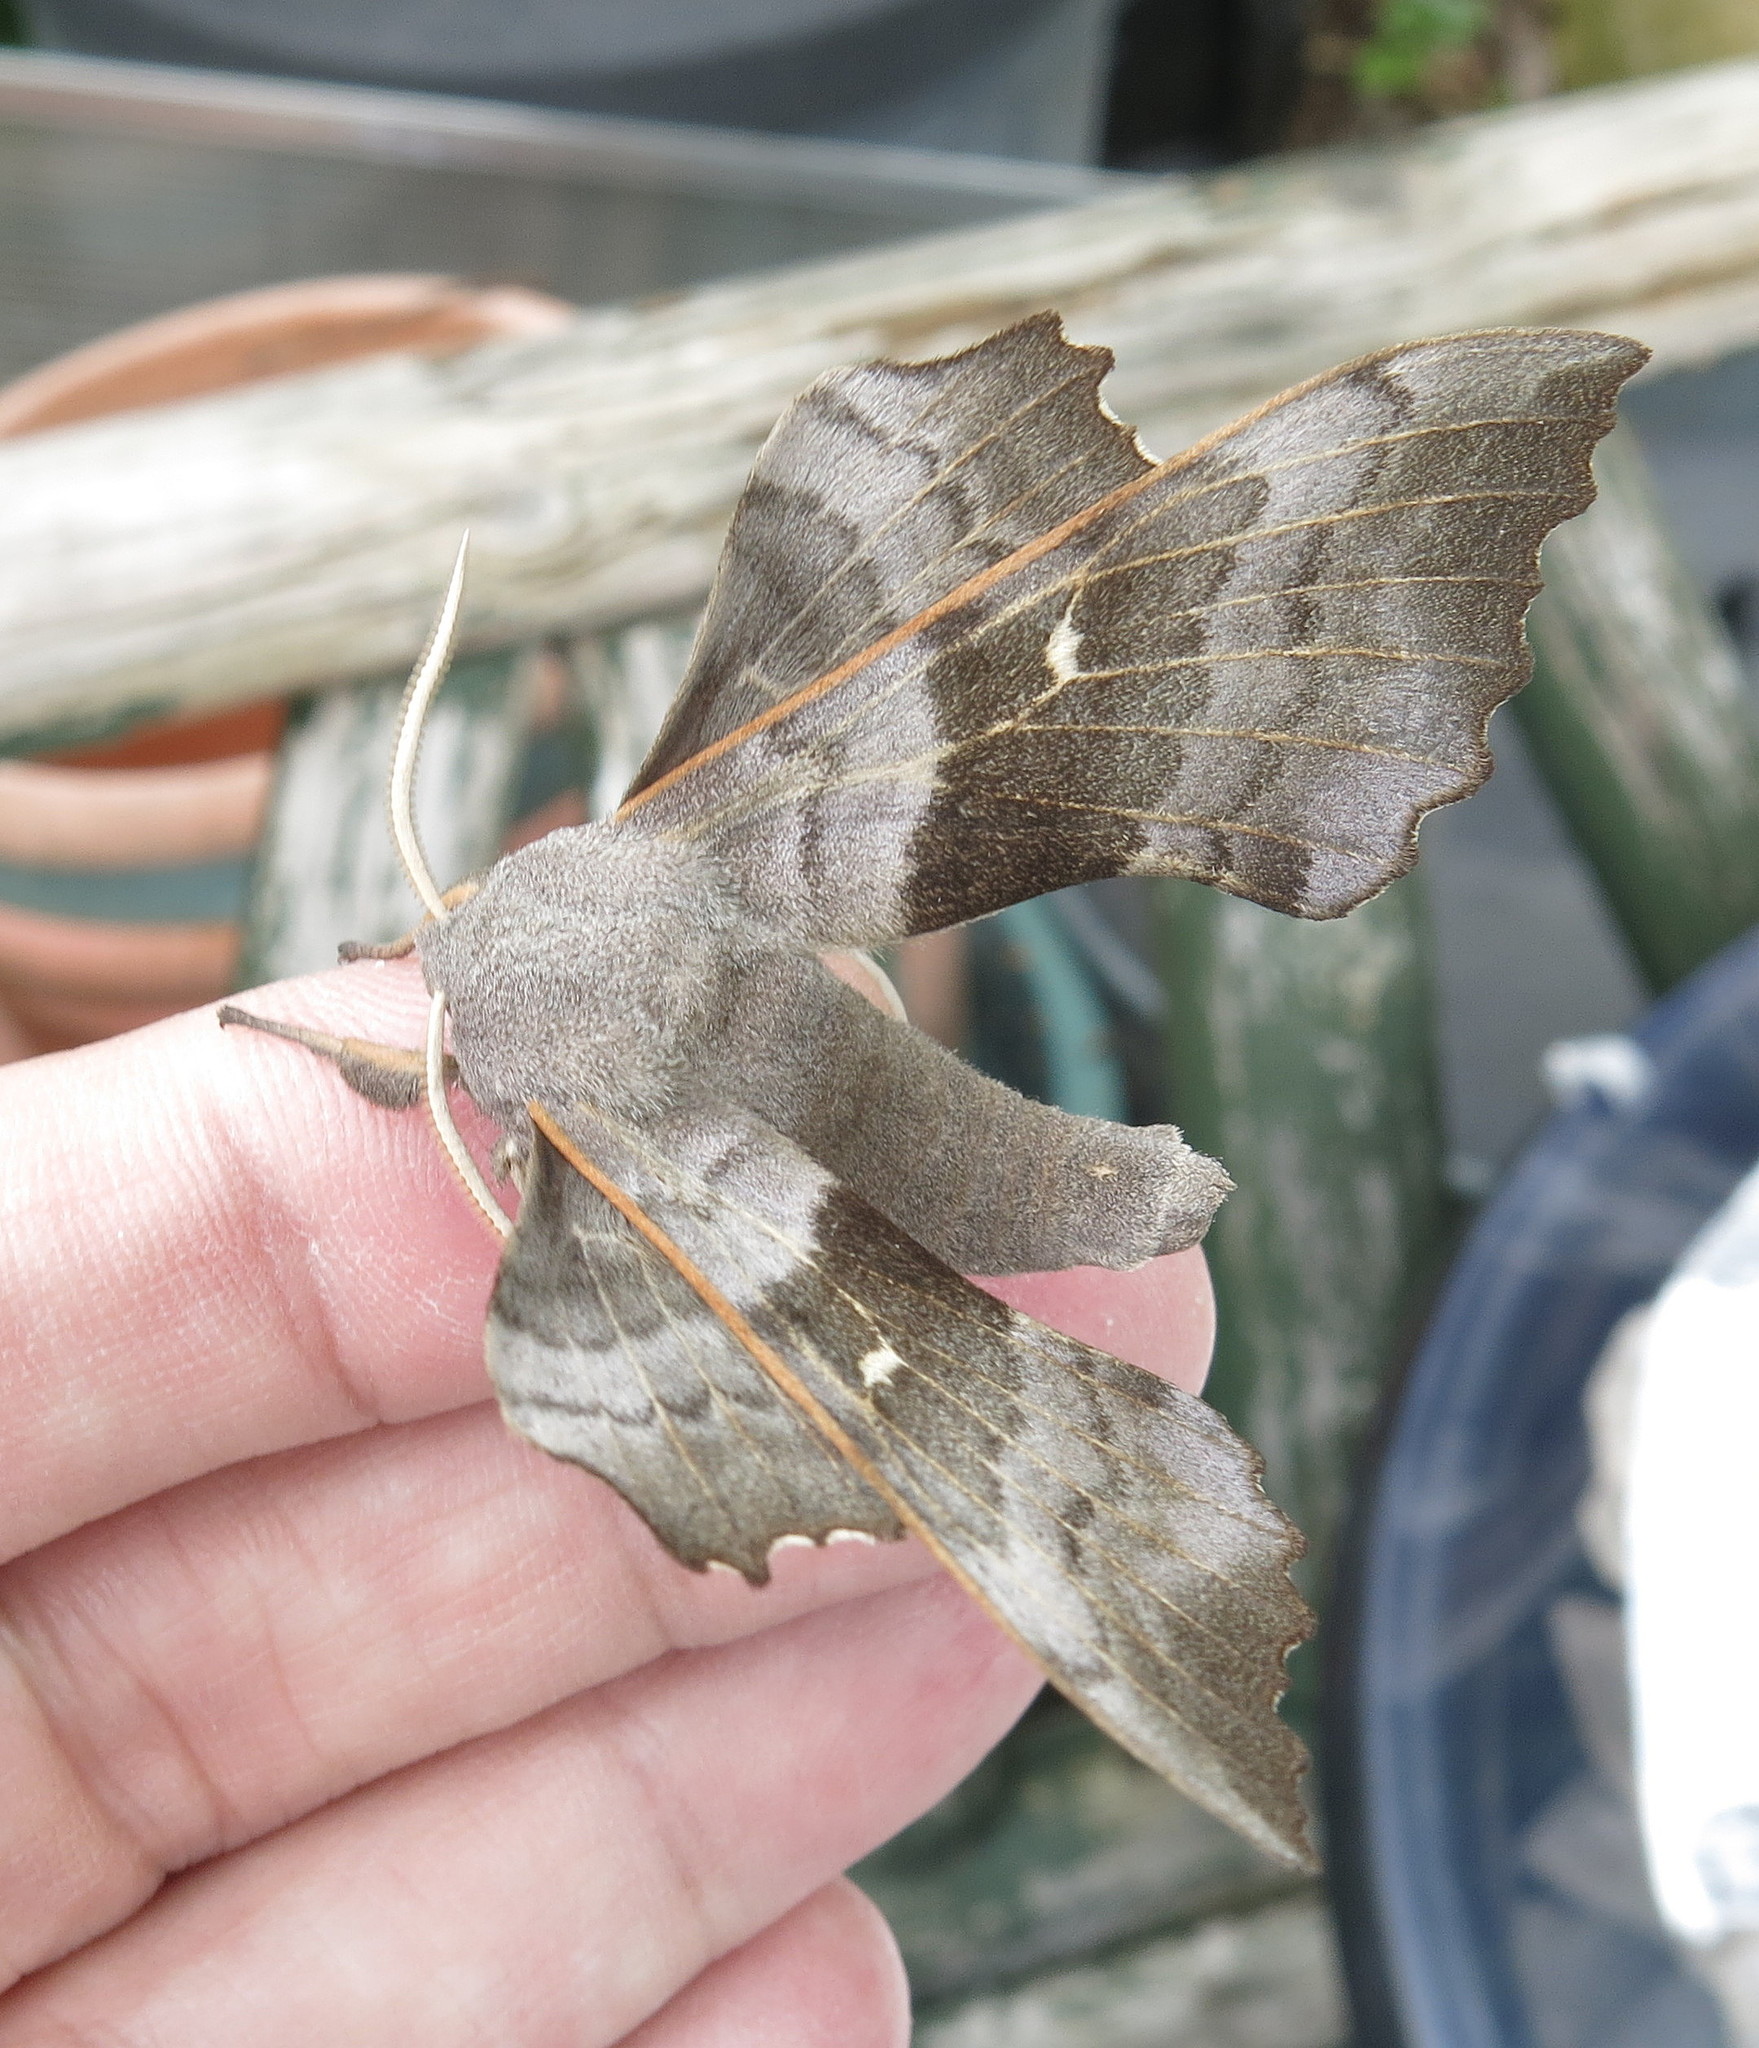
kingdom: Animalia
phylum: Arthropoda
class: Insecta
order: Lepidoptera
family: Sphingidae
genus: Laothoe
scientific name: Laothoe populi
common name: Poplar hawk-moth
